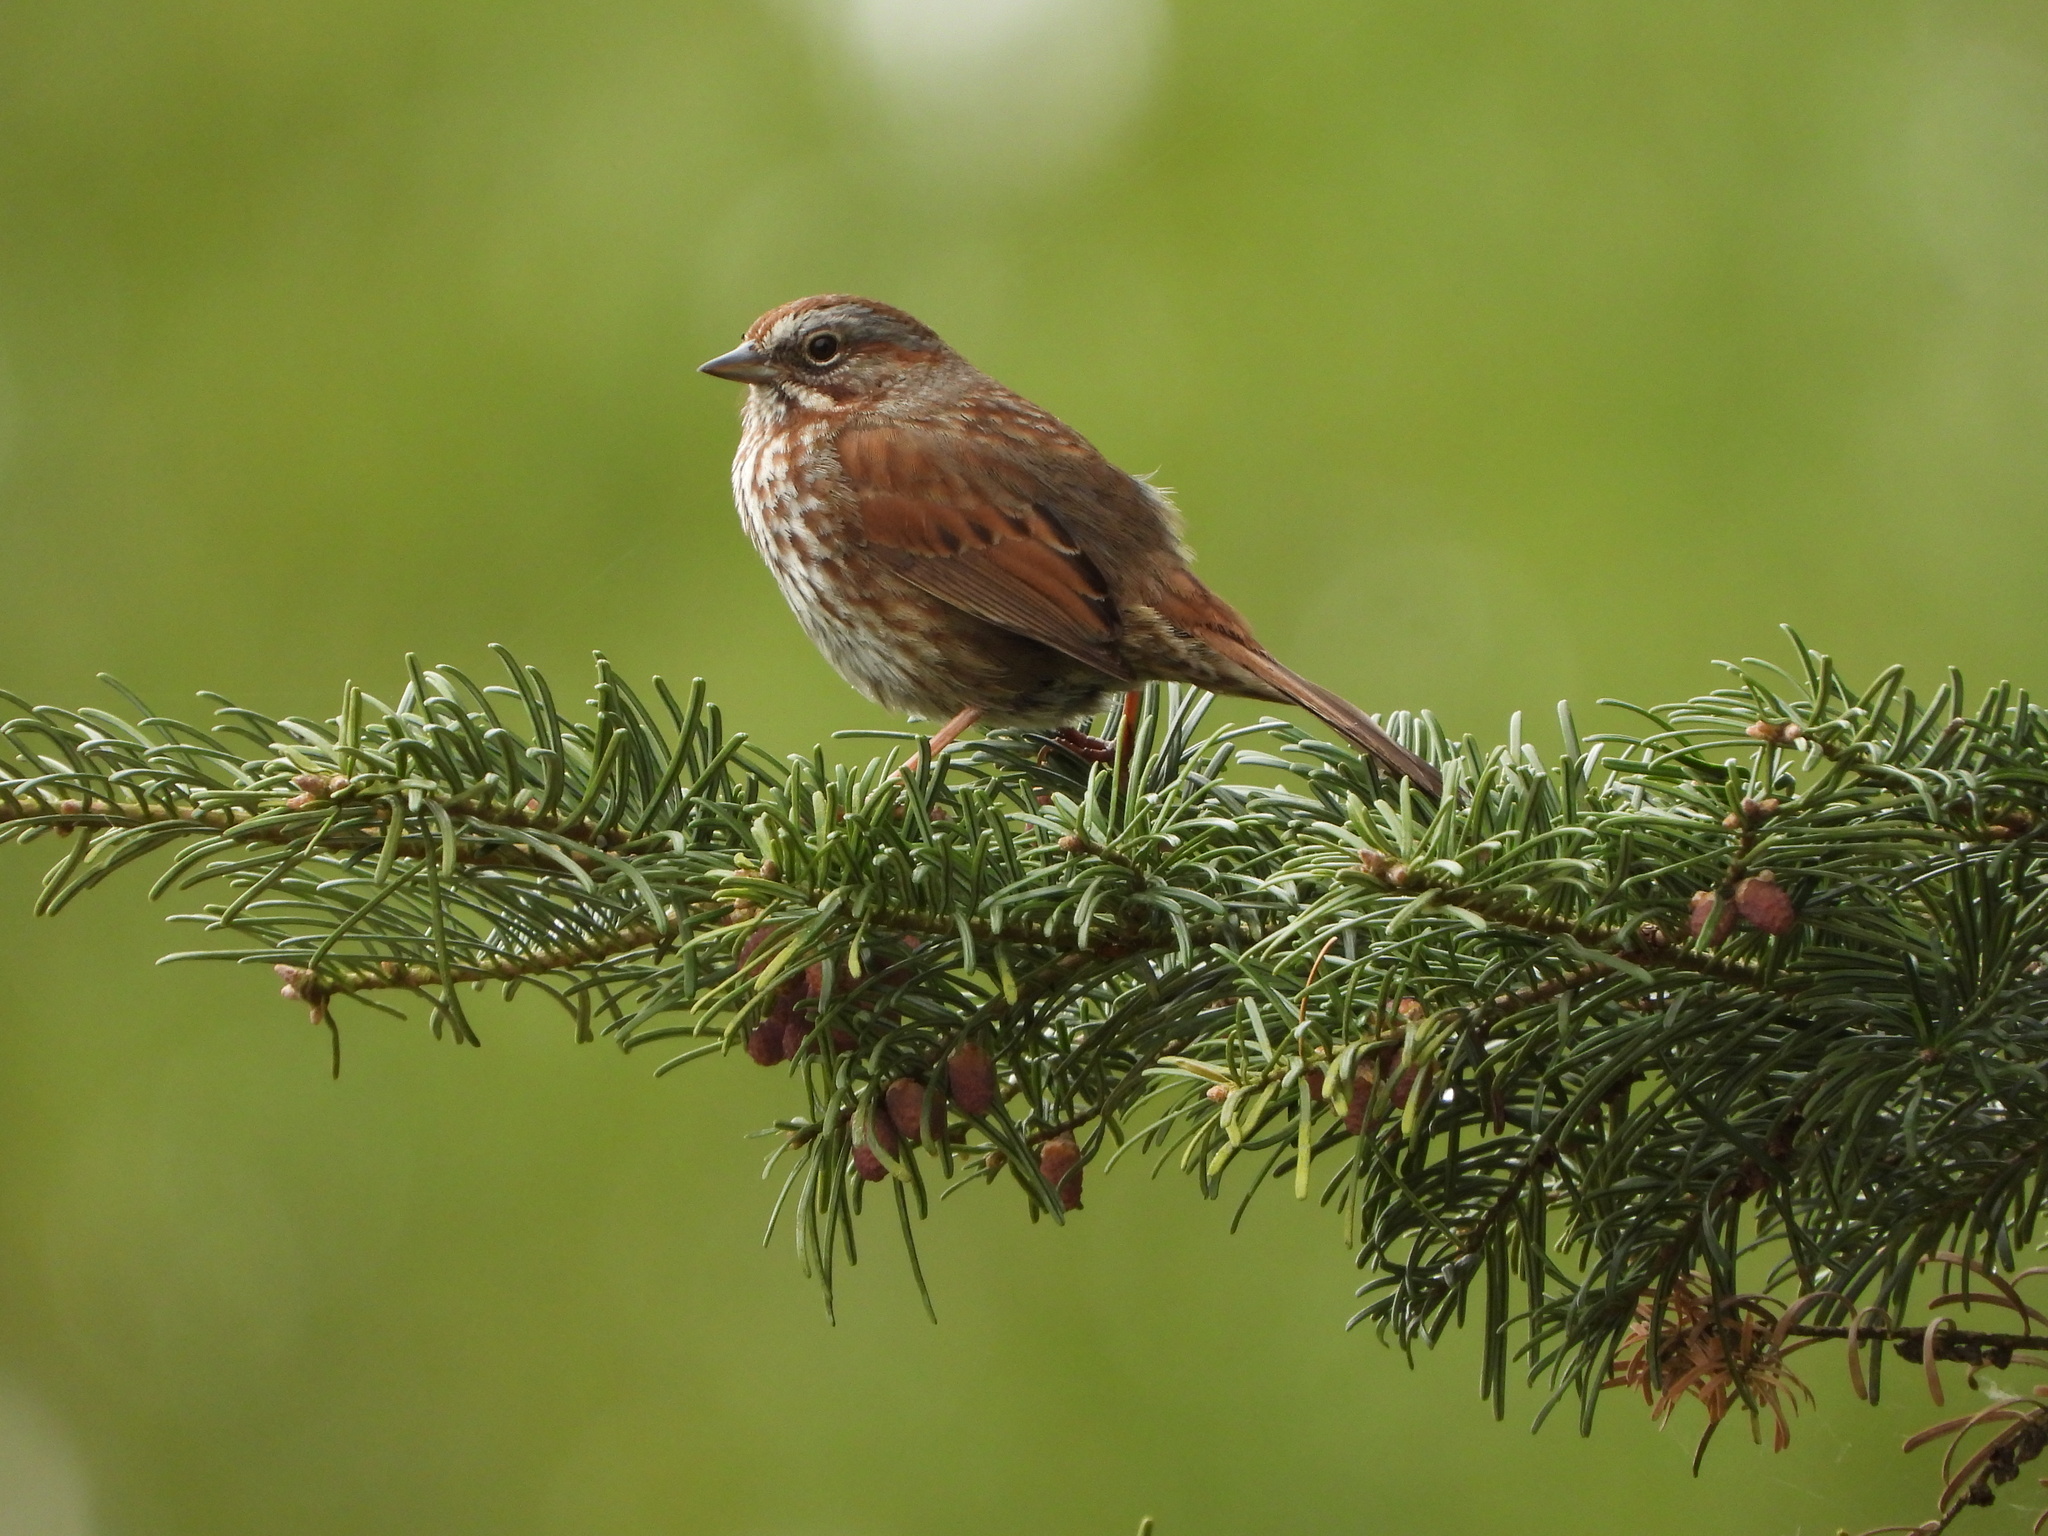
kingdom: Animalia
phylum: Chordata
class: Aves
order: Passeriformes
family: Passerellidae
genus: Melospiza
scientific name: Melospiza melodia
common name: Song sparrow
